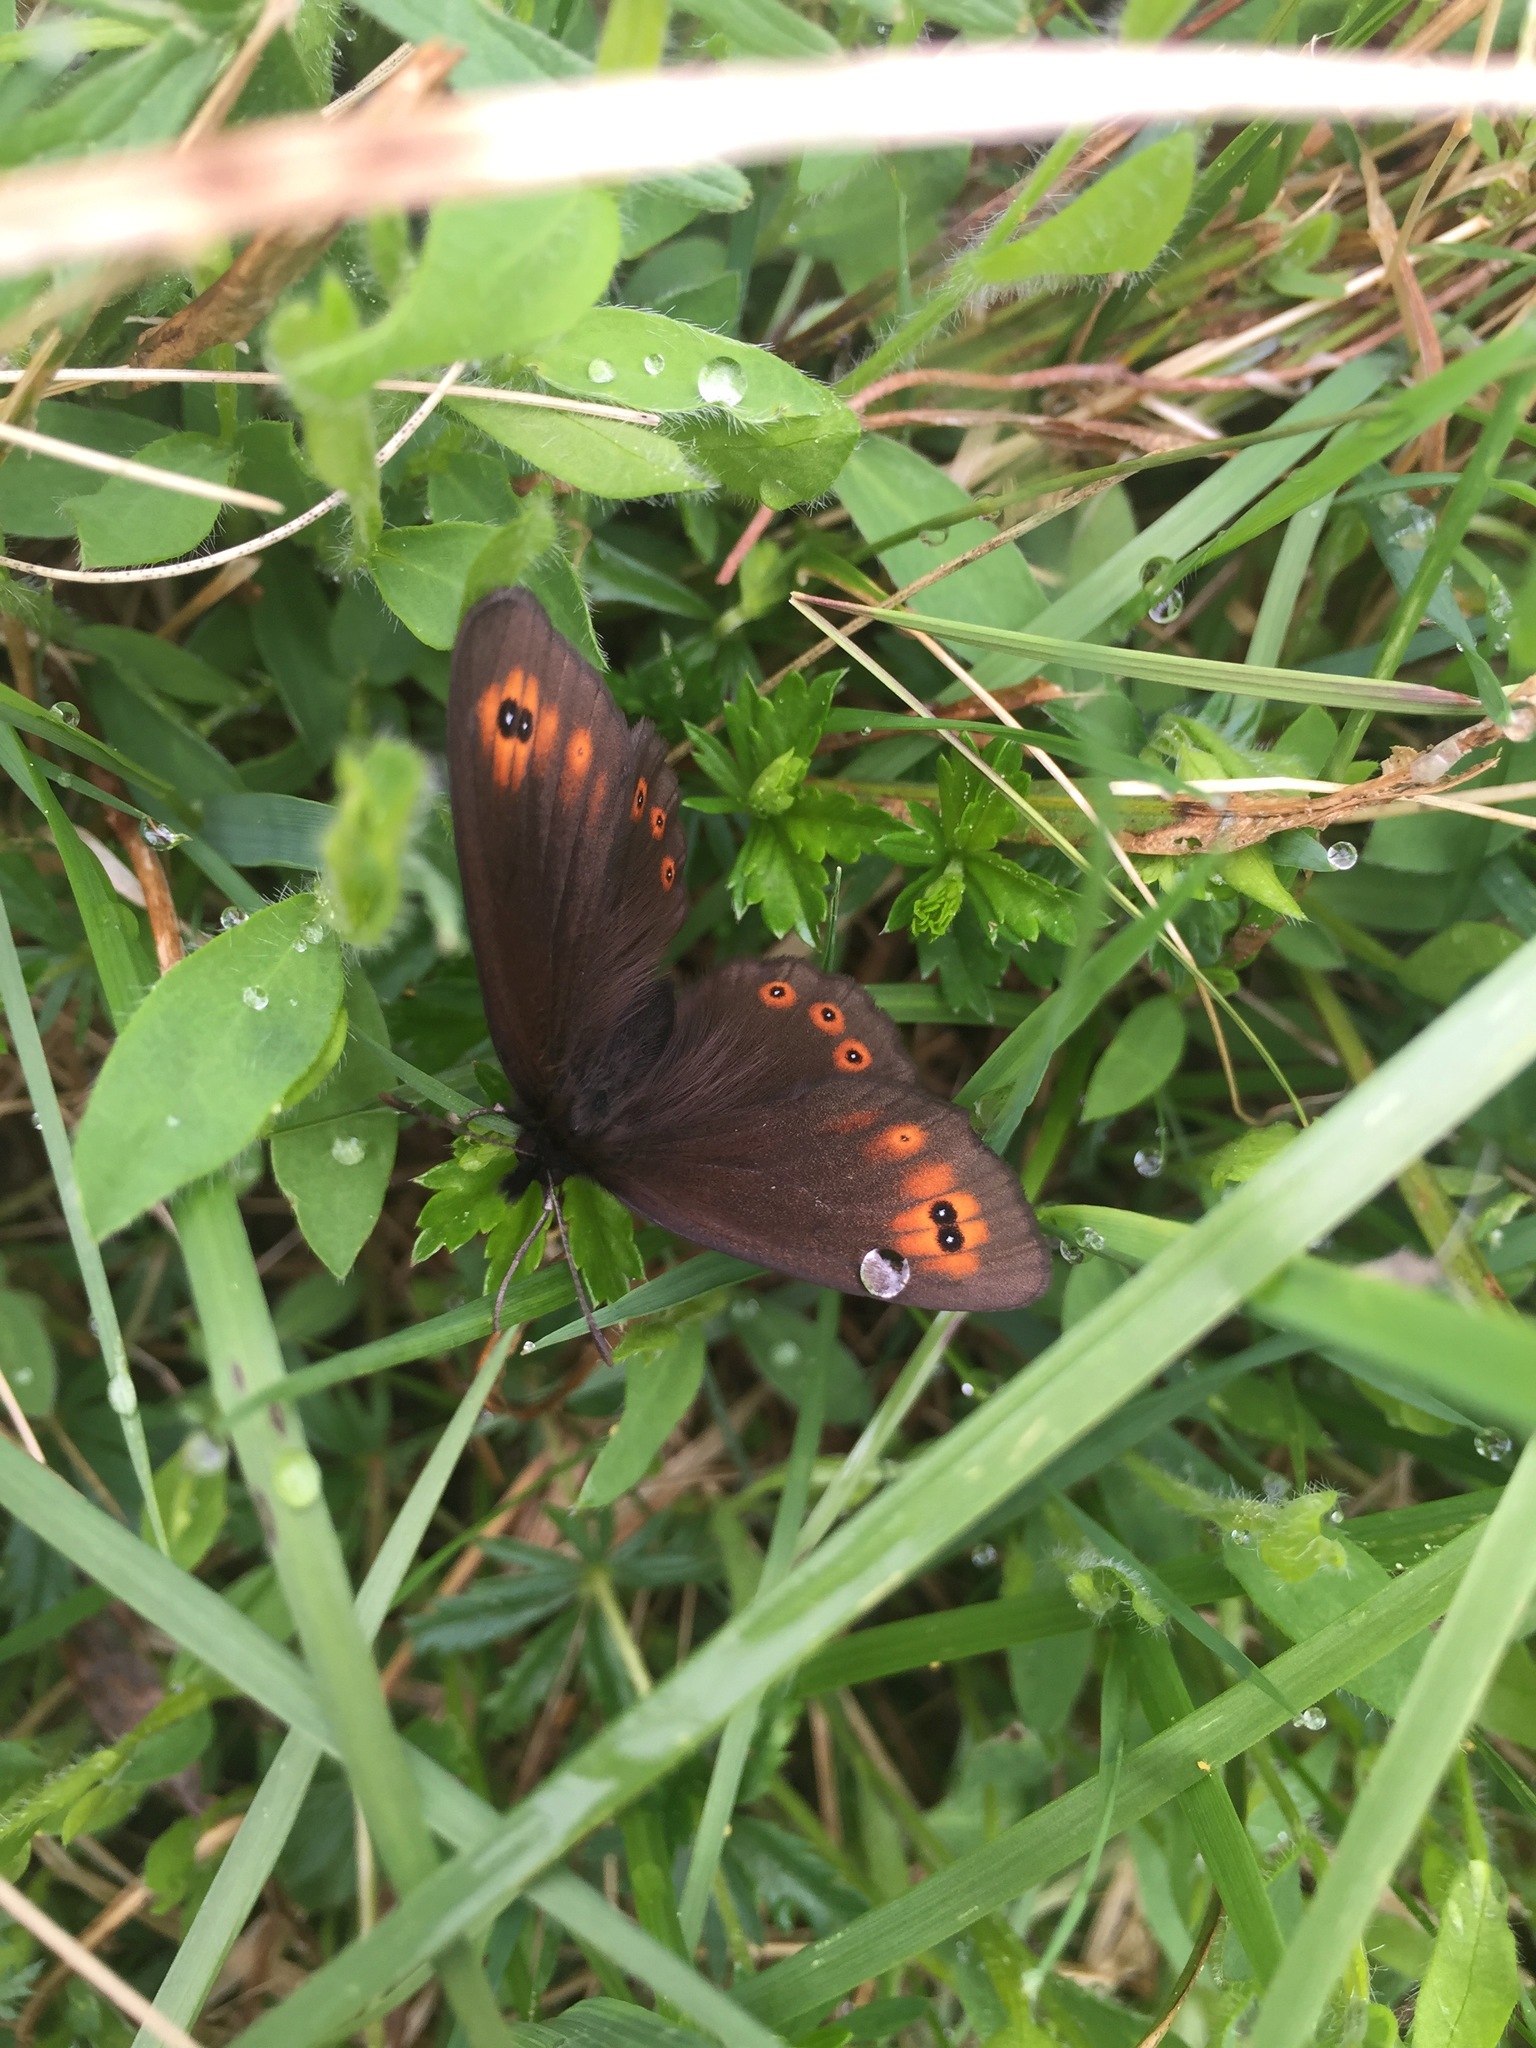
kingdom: Animalia
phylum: Arthropoda
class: Insecta
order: Lepidoptera
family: Nymphalidae
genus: Erebia
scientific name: Erebia medusa
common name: Woodland ringlet
